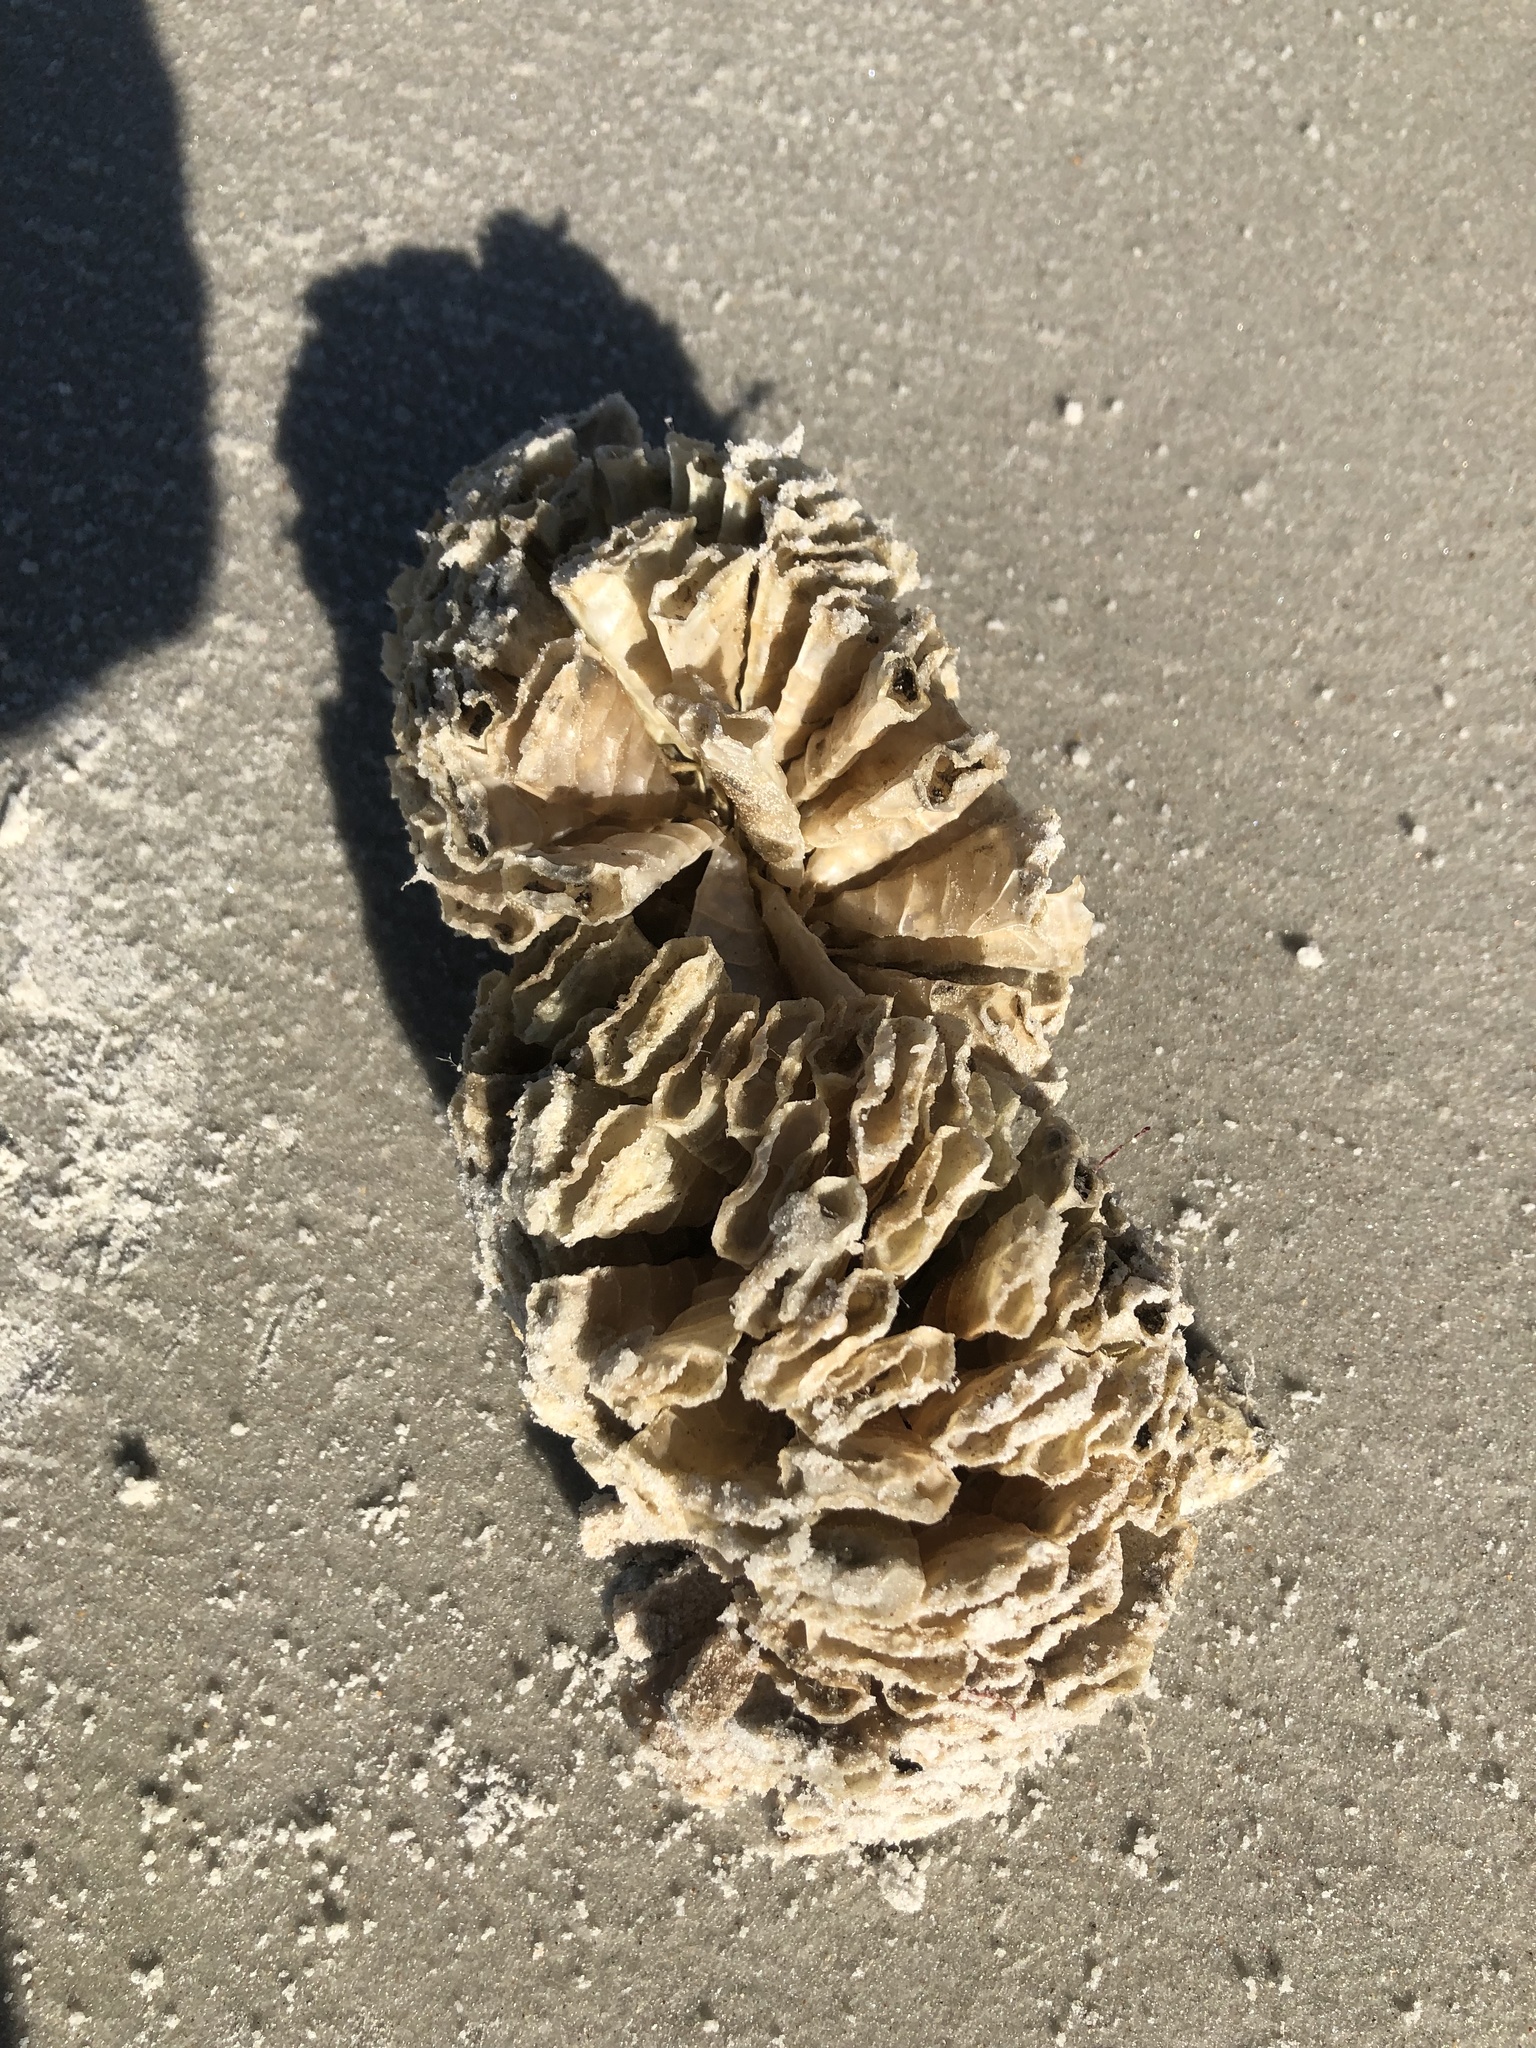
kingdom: Animalia
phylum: Mollusca
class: Gastropoda
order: Neogastropoda
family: Fasciolariidae
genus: Triplofusus
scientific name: Triplofusus giganteus
